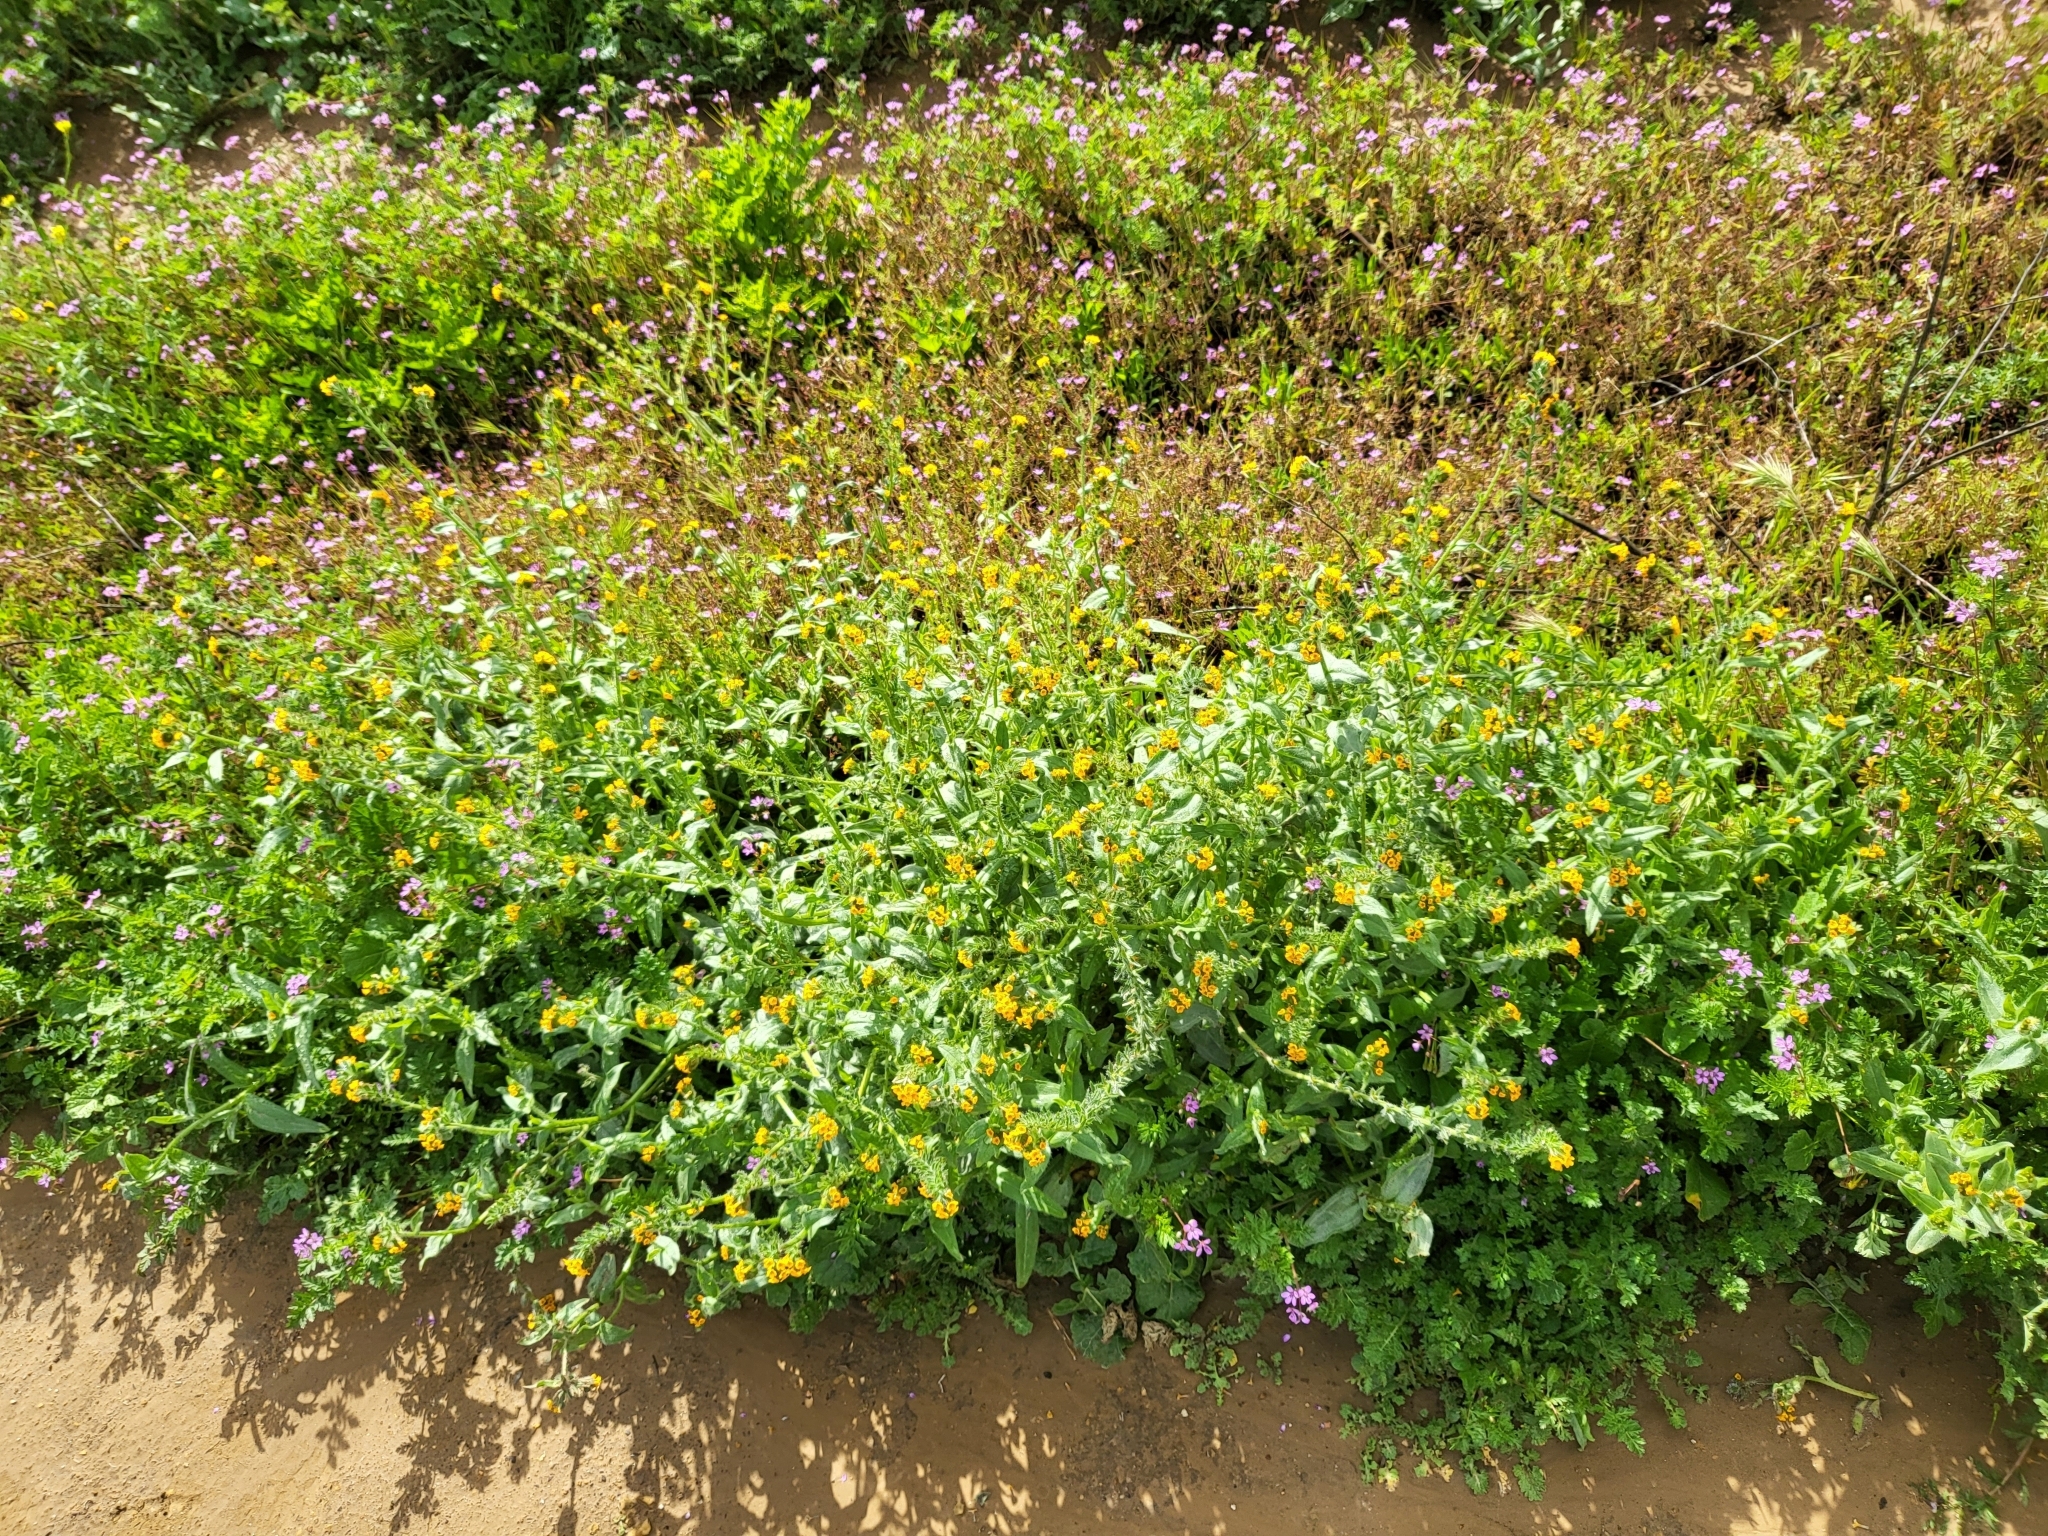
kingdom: Plantae
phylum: Tracheophyta
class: Magnoliopsida
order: Boraginales
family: Boraginaceae
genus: Amsinckia
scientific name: Amsinckia menziesii
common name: Menzies' fiddleneck
